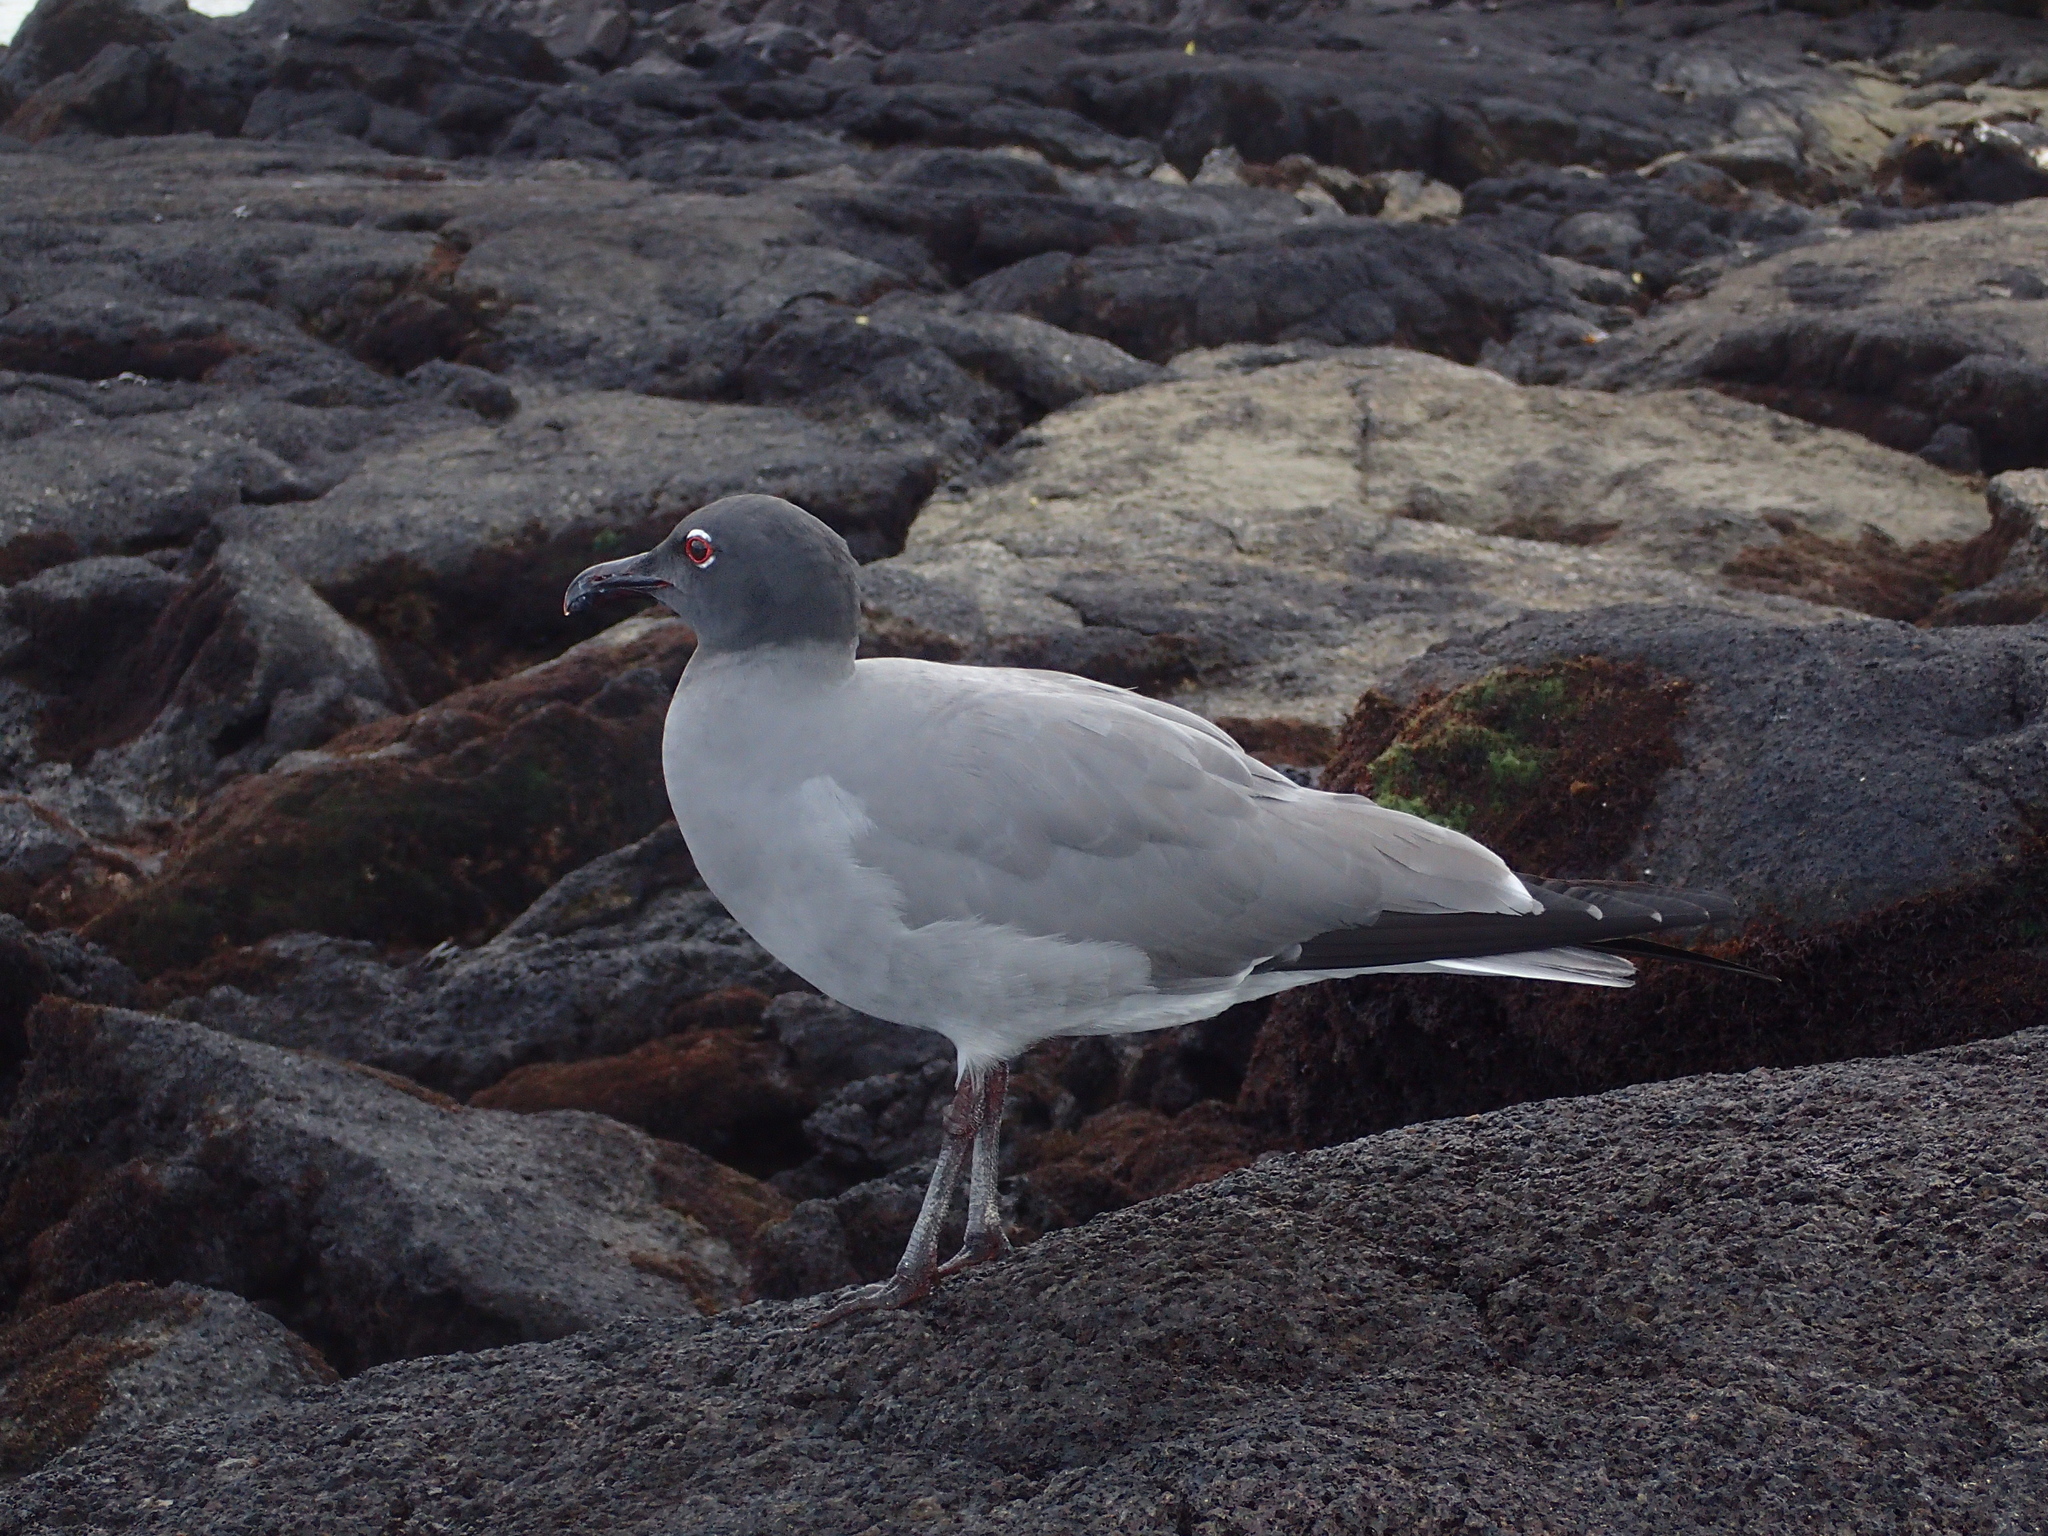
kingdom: Animalia
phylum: Chordata
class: Aves
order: Charadriiformes
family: Laridae
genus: Leucophaeus
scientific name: Leucophaeus fuliginosus
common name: Lava gull
